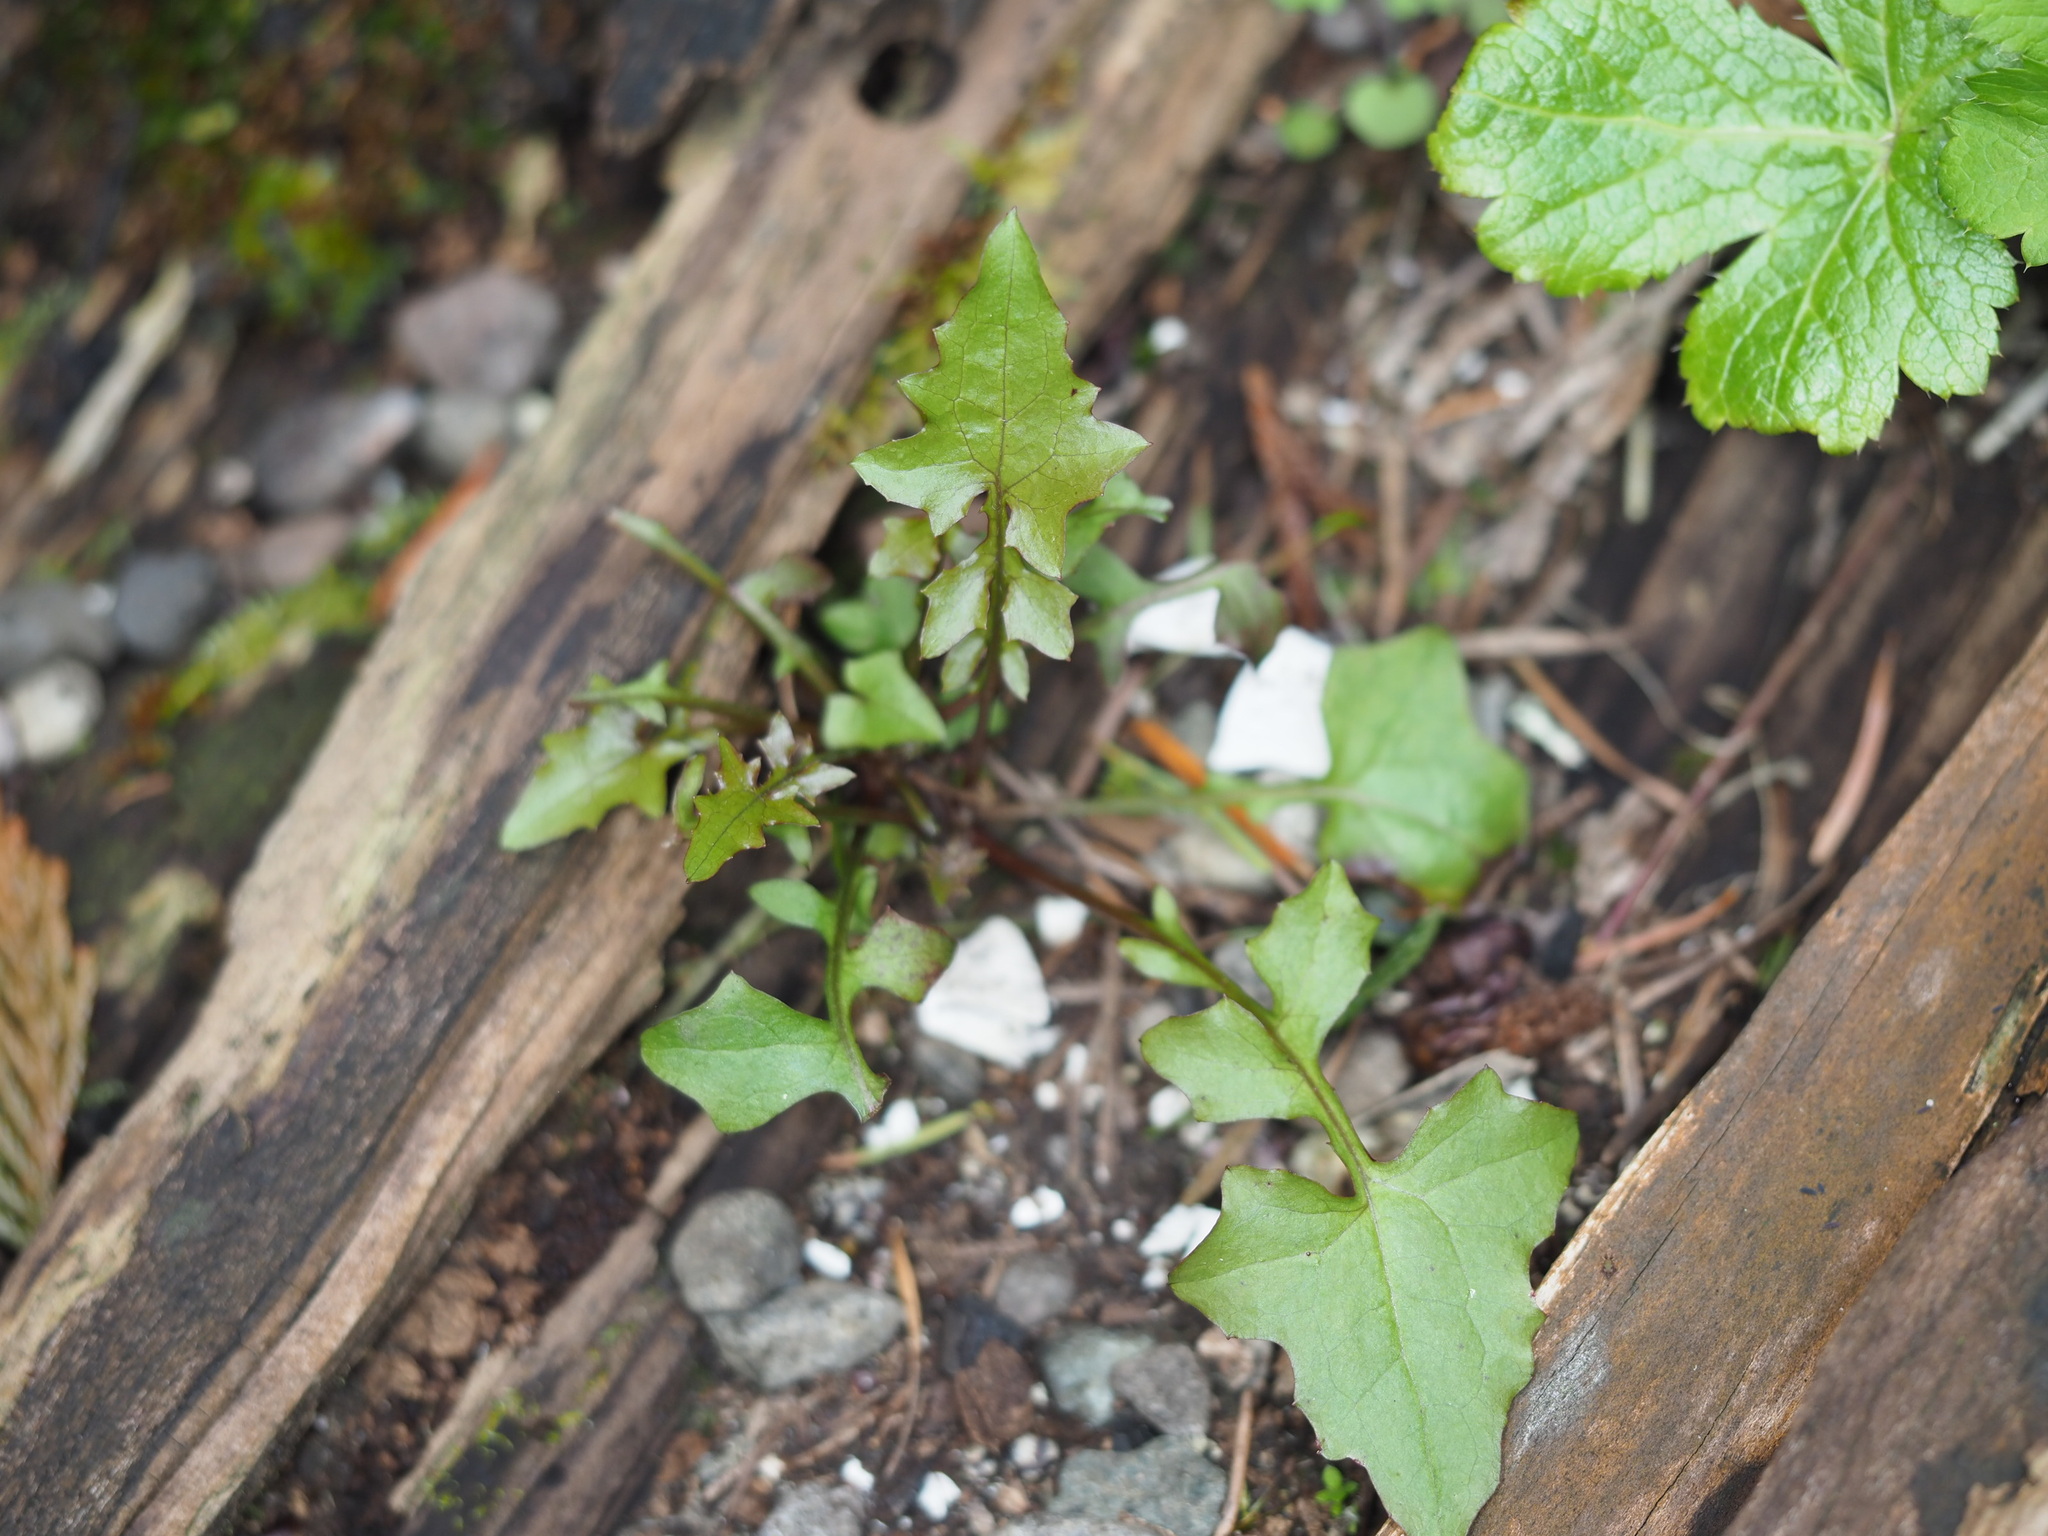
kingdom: Plantae
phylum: Tracheophyta
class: Magnoliopsida
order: Asterales
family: Asteraceae
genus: Mycelis
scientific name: Mycelis muralis
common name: Wall lettuce
